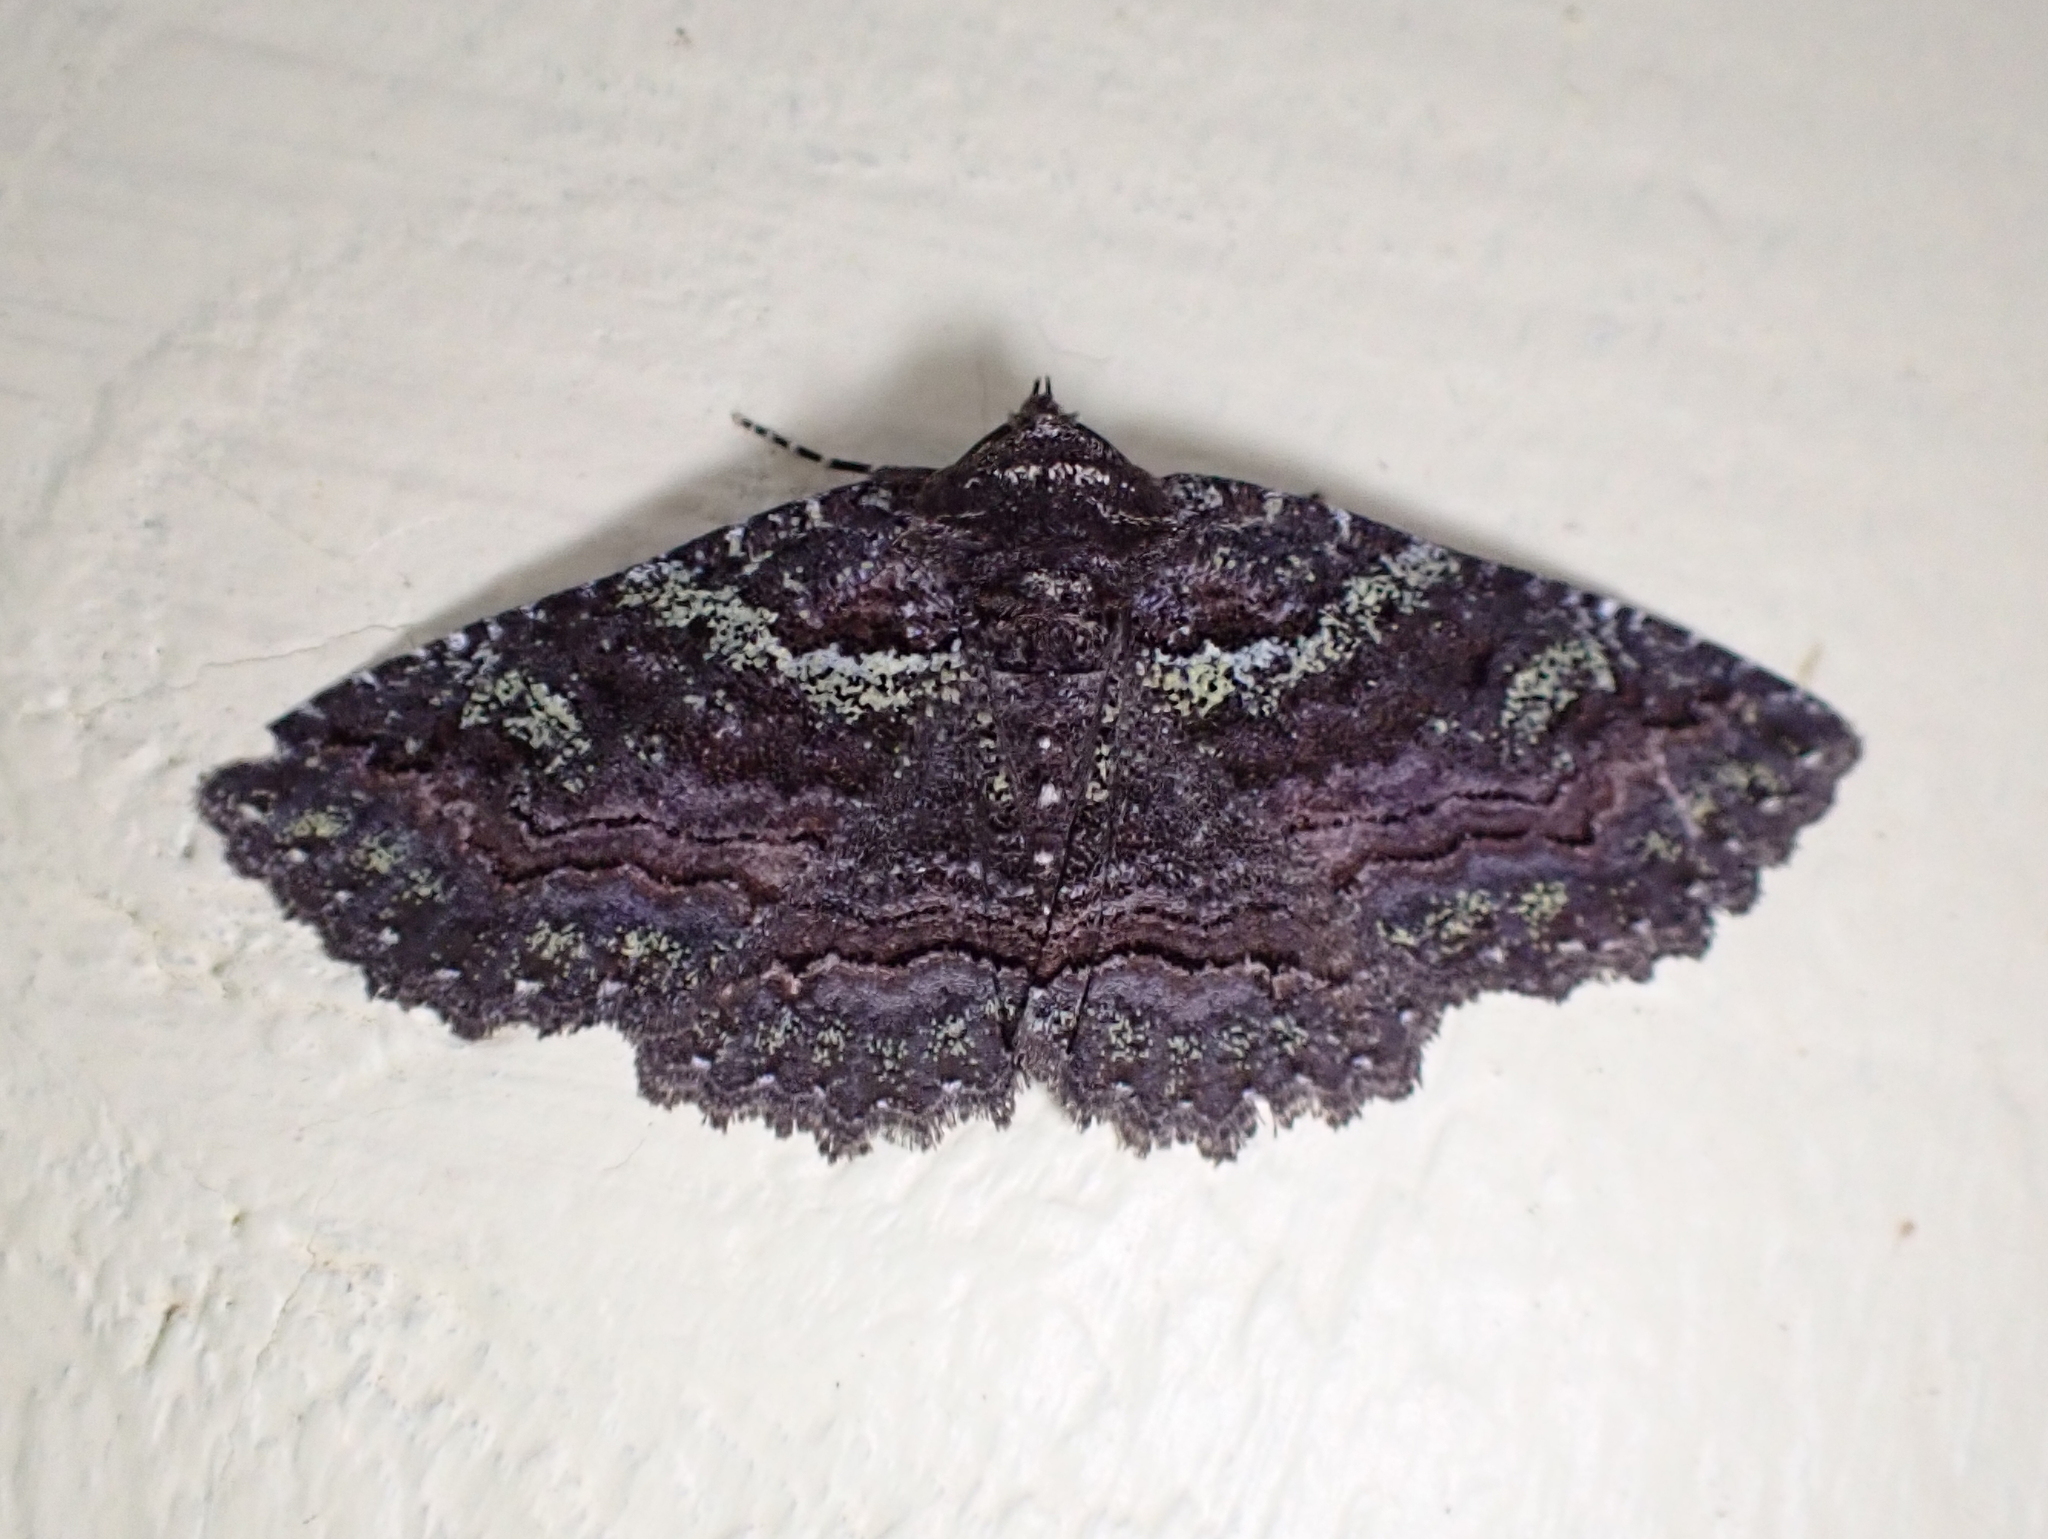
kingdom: Animalia
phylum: Arthropoda
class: Insecta
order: Lepidoptera
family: Erebidae
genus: Zale
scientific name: Zale aeruginosa
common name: Green-dusted zale moth
